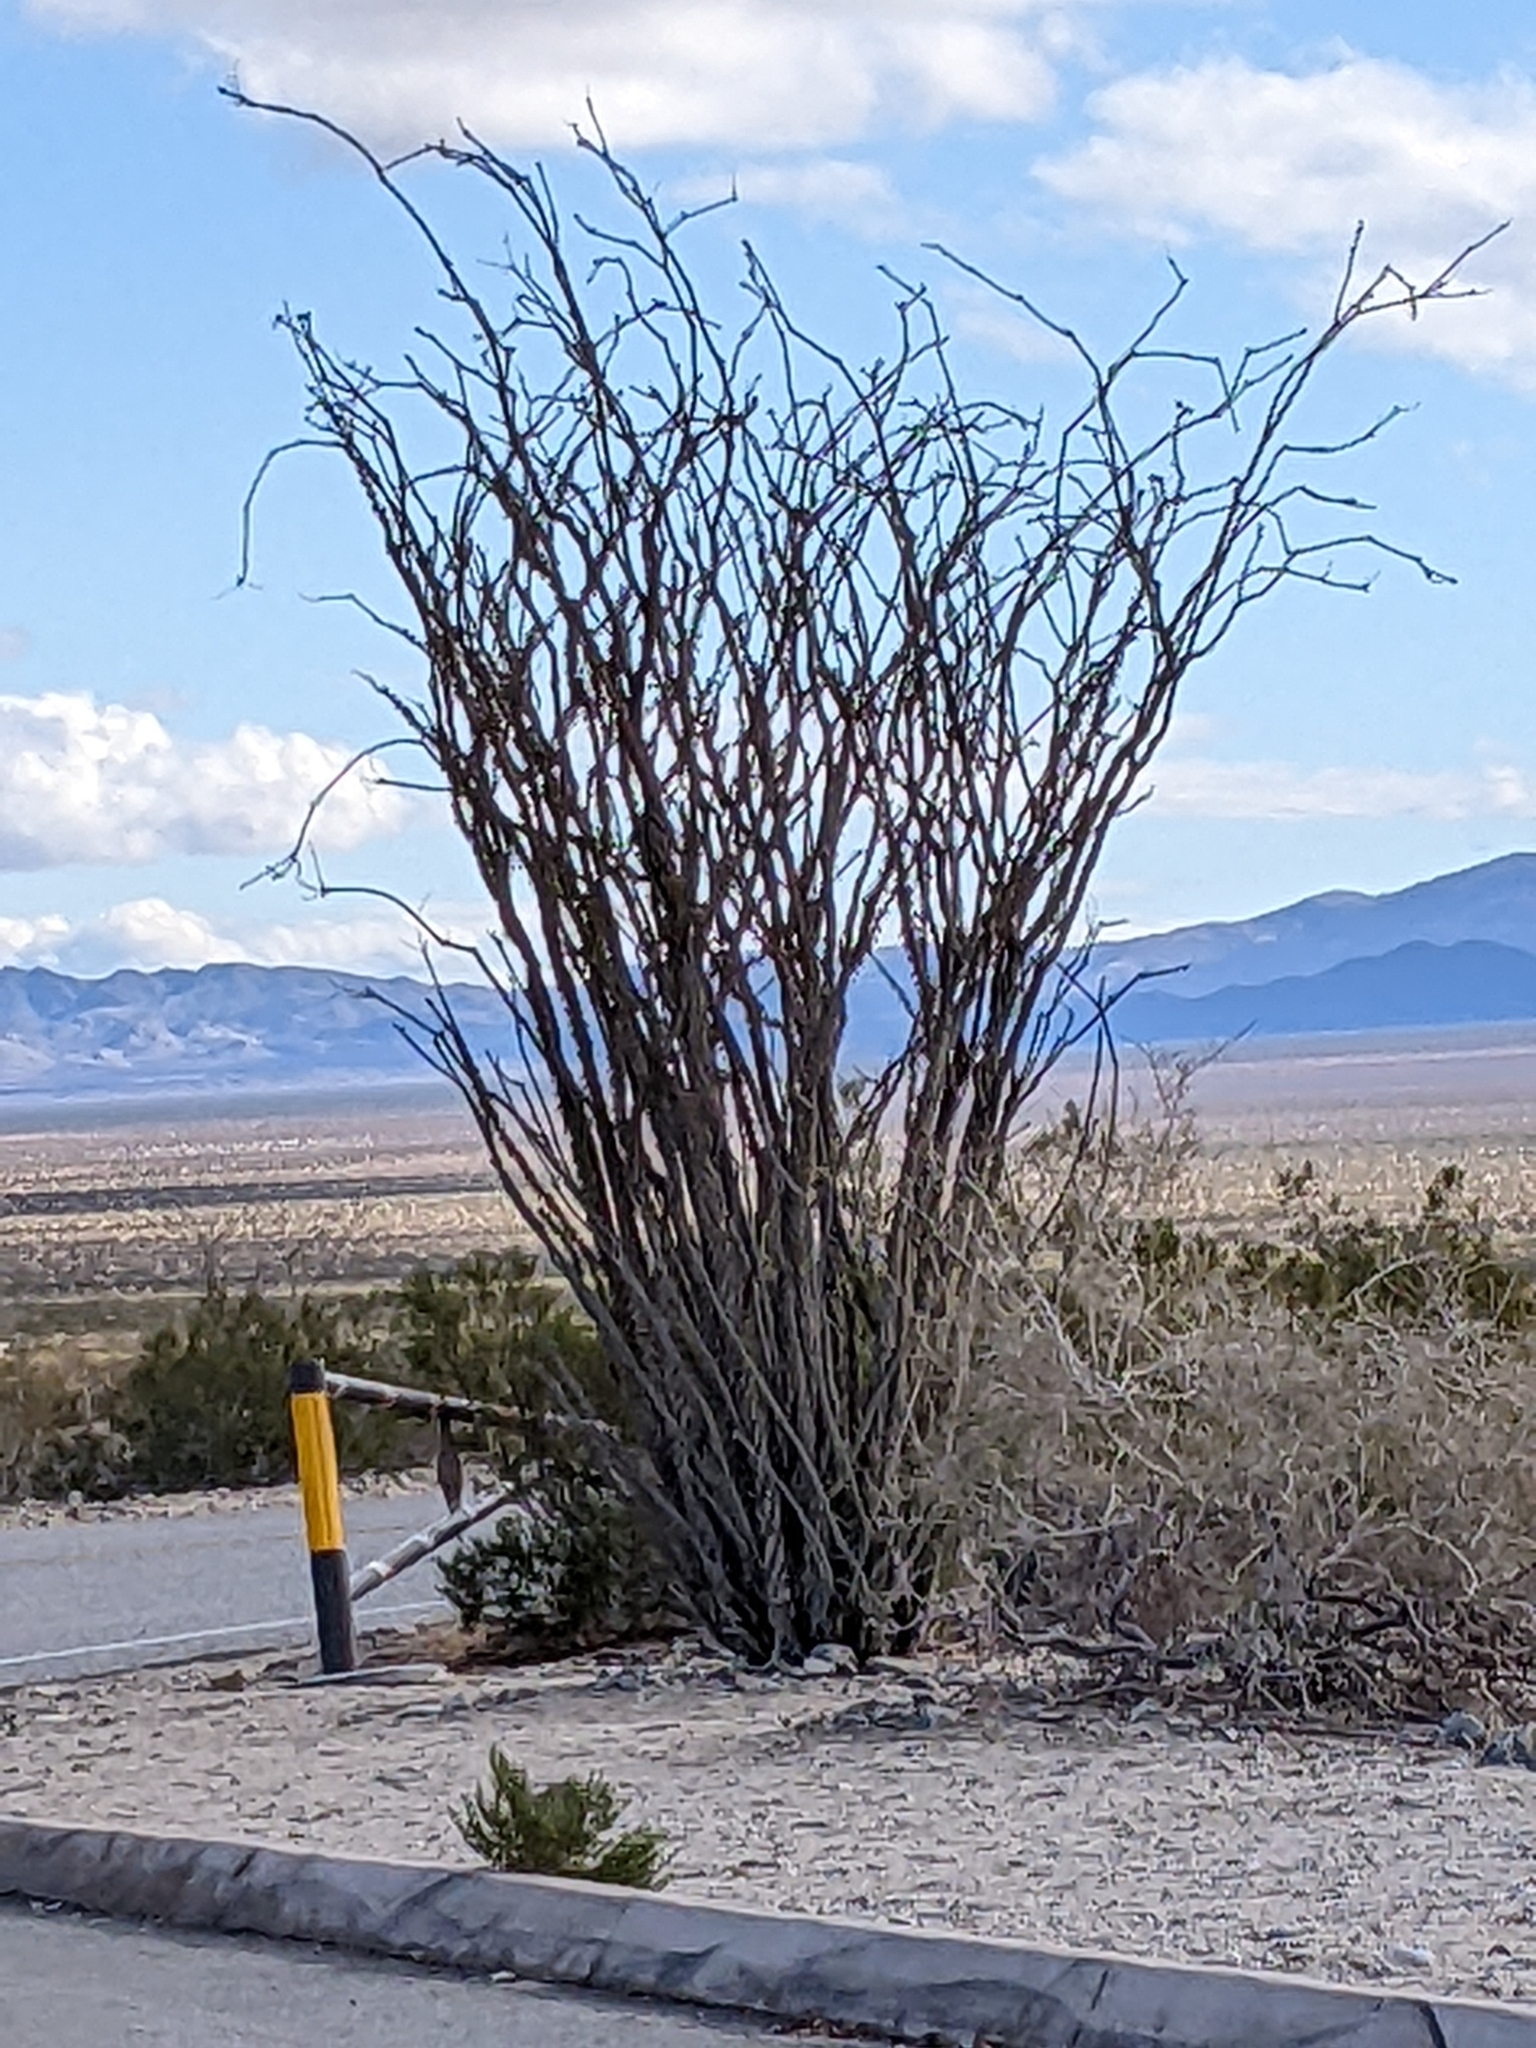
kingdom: Plantae
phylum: Tracheophyta
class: Magnoliopsida
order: Ericales
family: Fouquieriaceae
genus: Fouquieria
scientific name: Fouquieria splendens
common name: Vine-cactus
